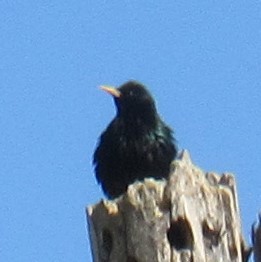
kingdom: Animalia
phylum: Chordata
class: Aves
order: Passeriformes
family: Sturnidae
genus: Sturnus
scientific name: Sturnus vulgaris
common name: Common starling
